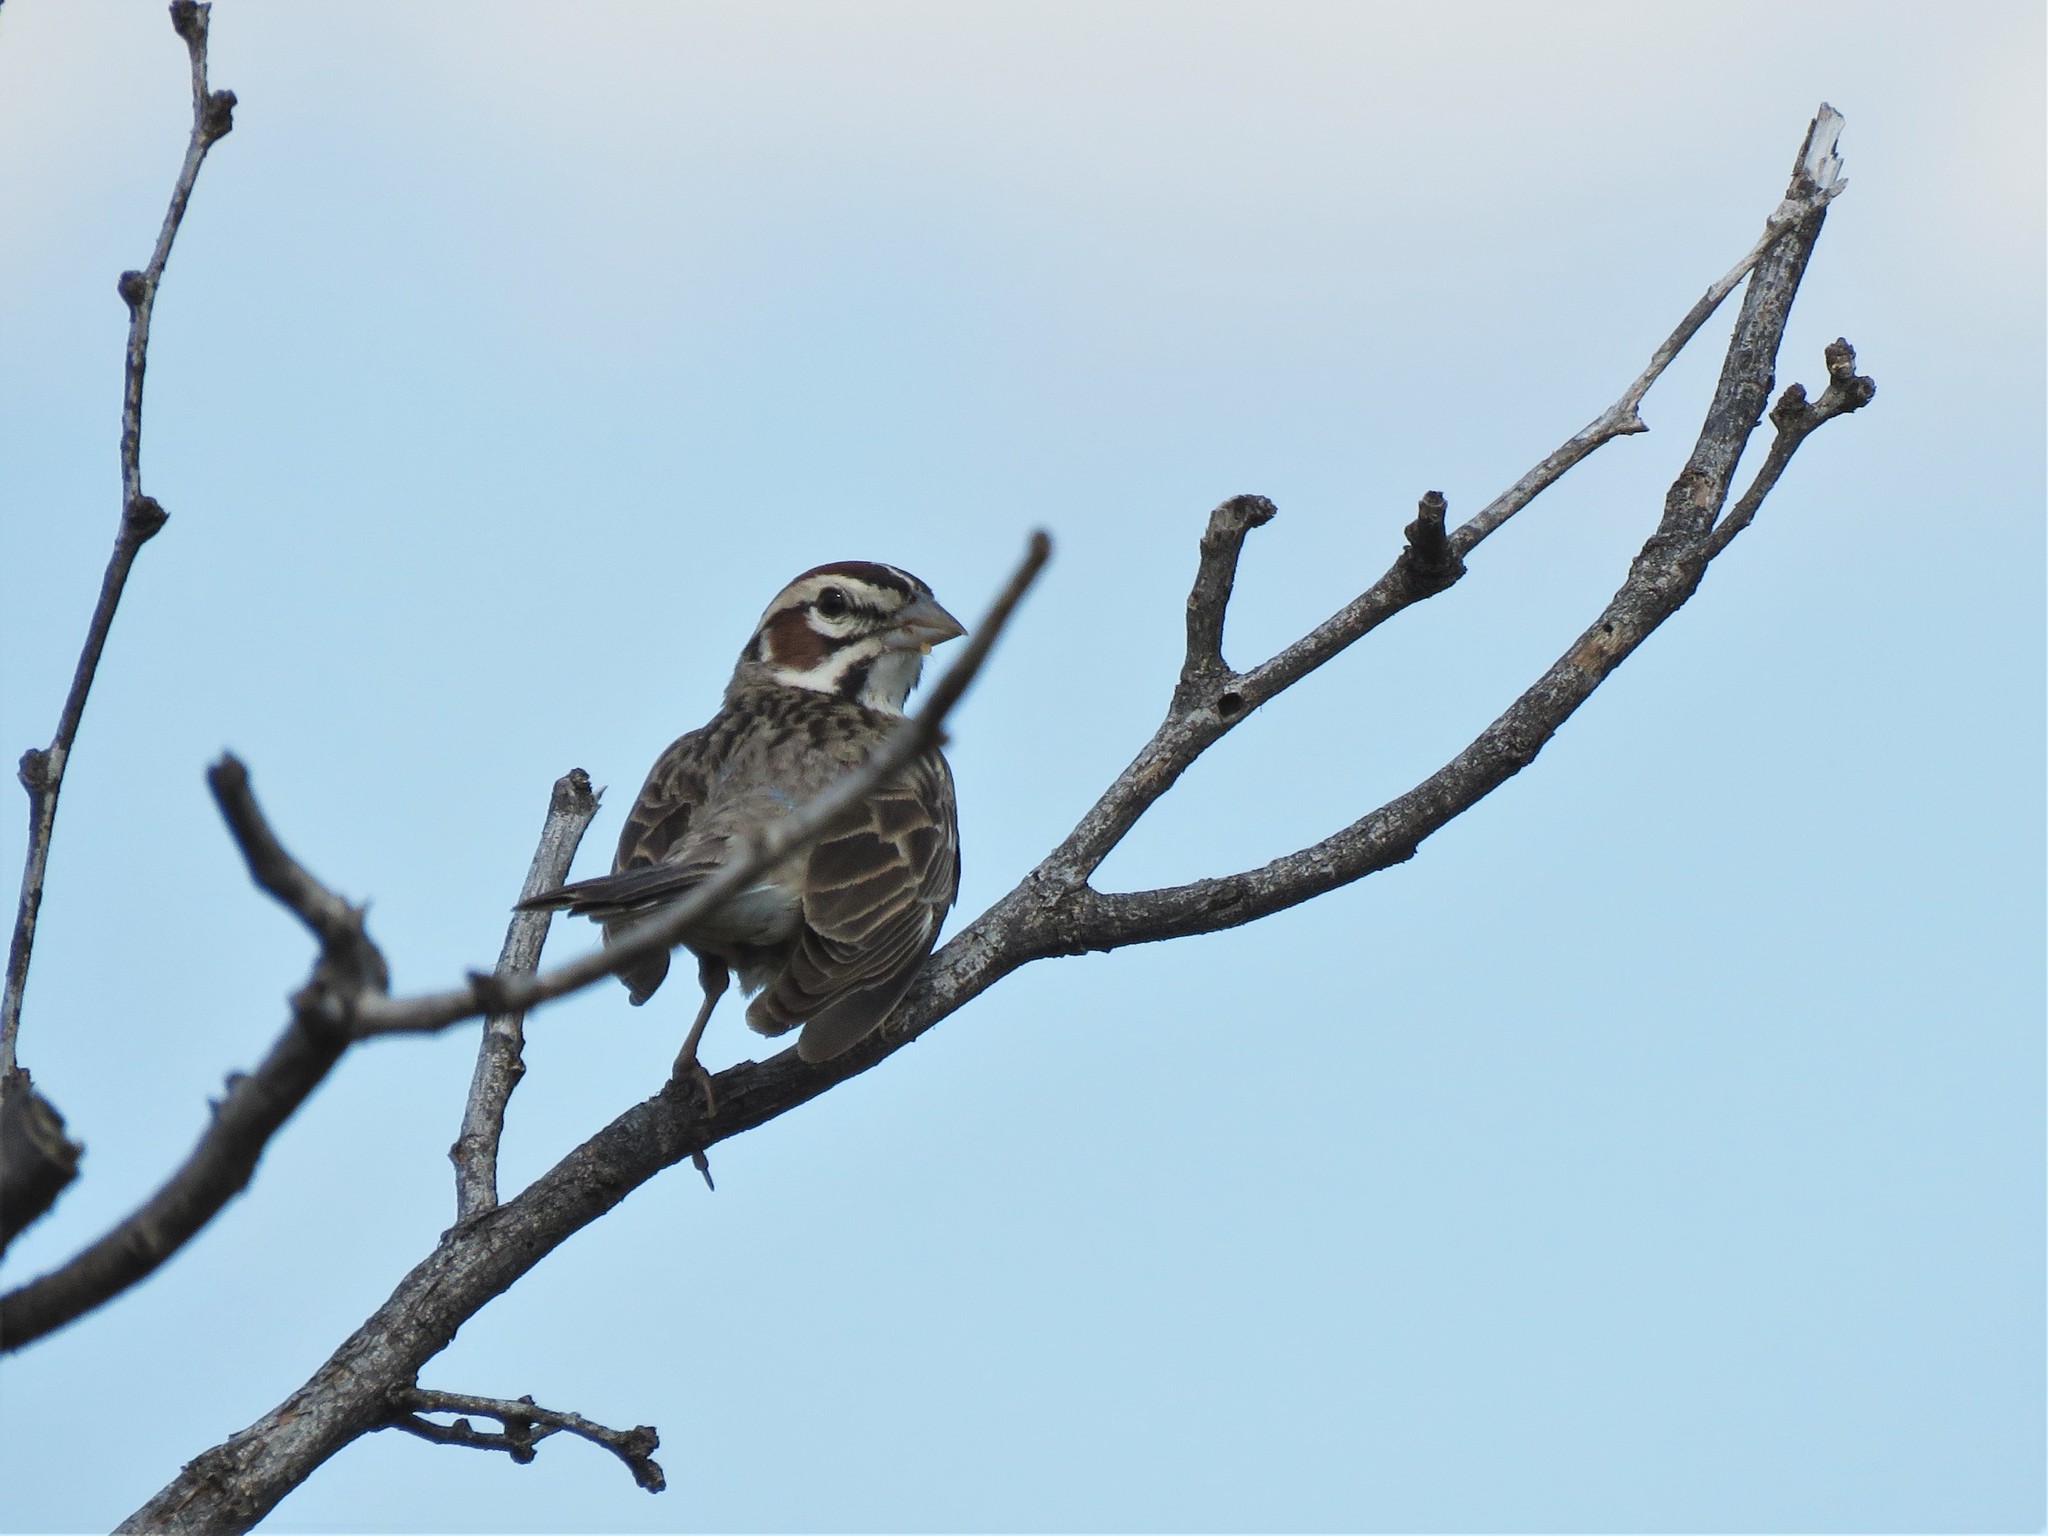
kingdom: Animalia
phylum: Chordata
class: Aves
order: Passeriformes
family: Passerellidae
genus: Chondestes
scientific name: Chondestes grammacus
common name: Lark sparrow
